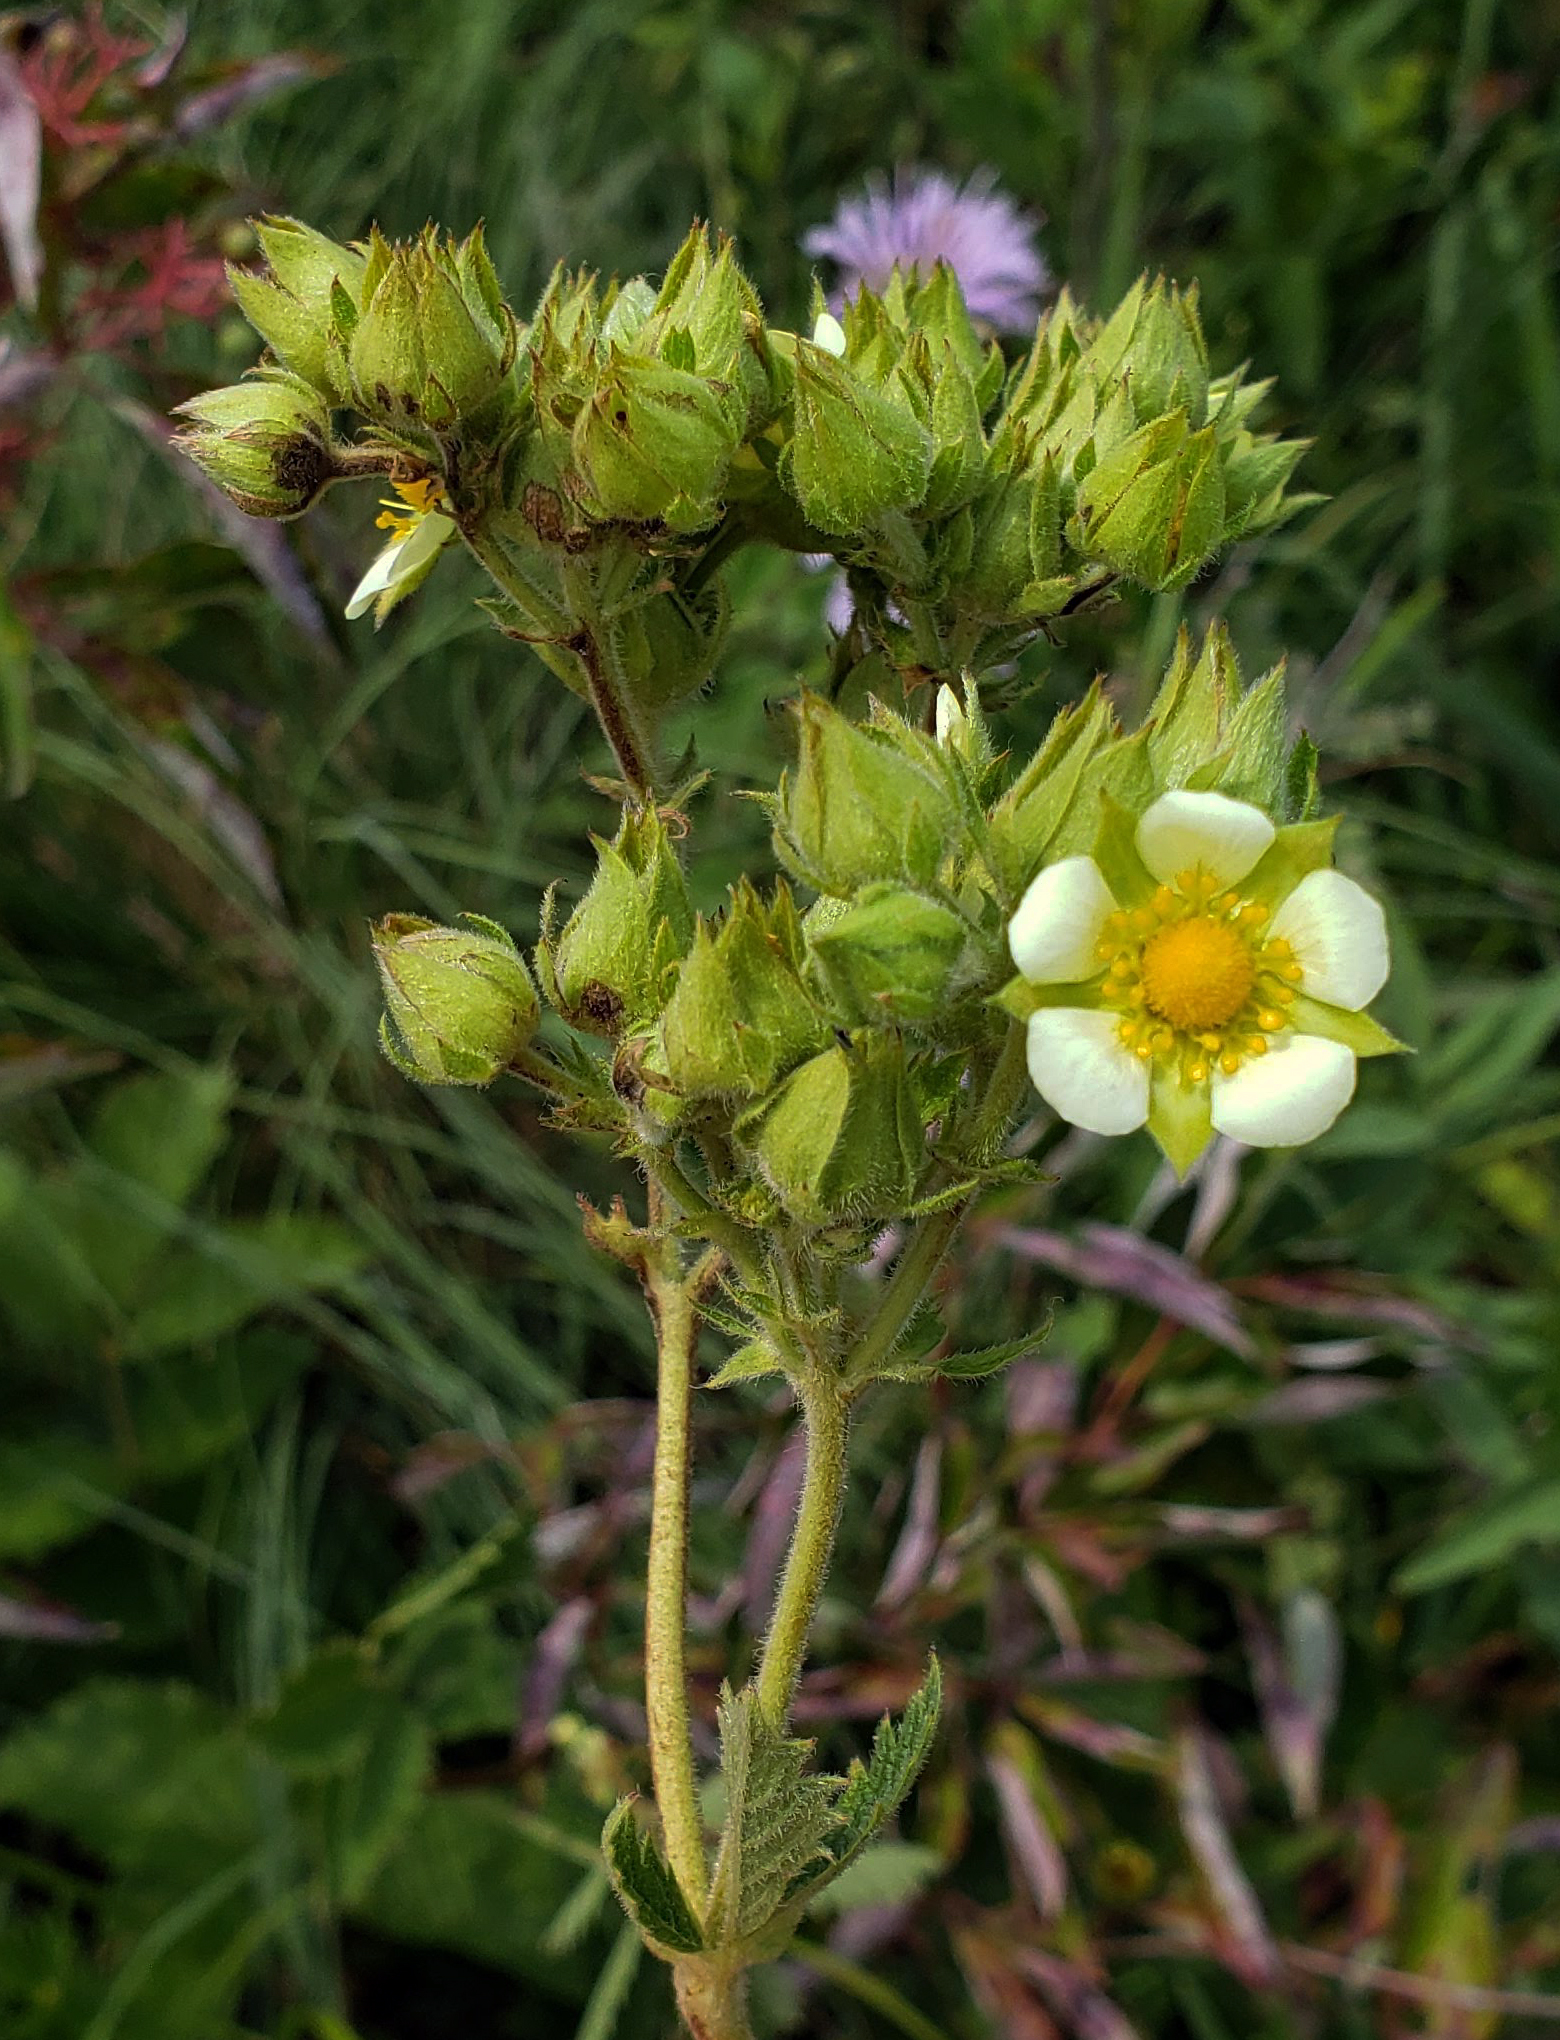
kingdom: Plantae
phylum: Tracheophyta
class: Magnoliopsida
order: Rosales
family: Rosaceae
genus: Drymocallis
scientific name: Drymocallis arguta
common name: Tall cinquefoil
